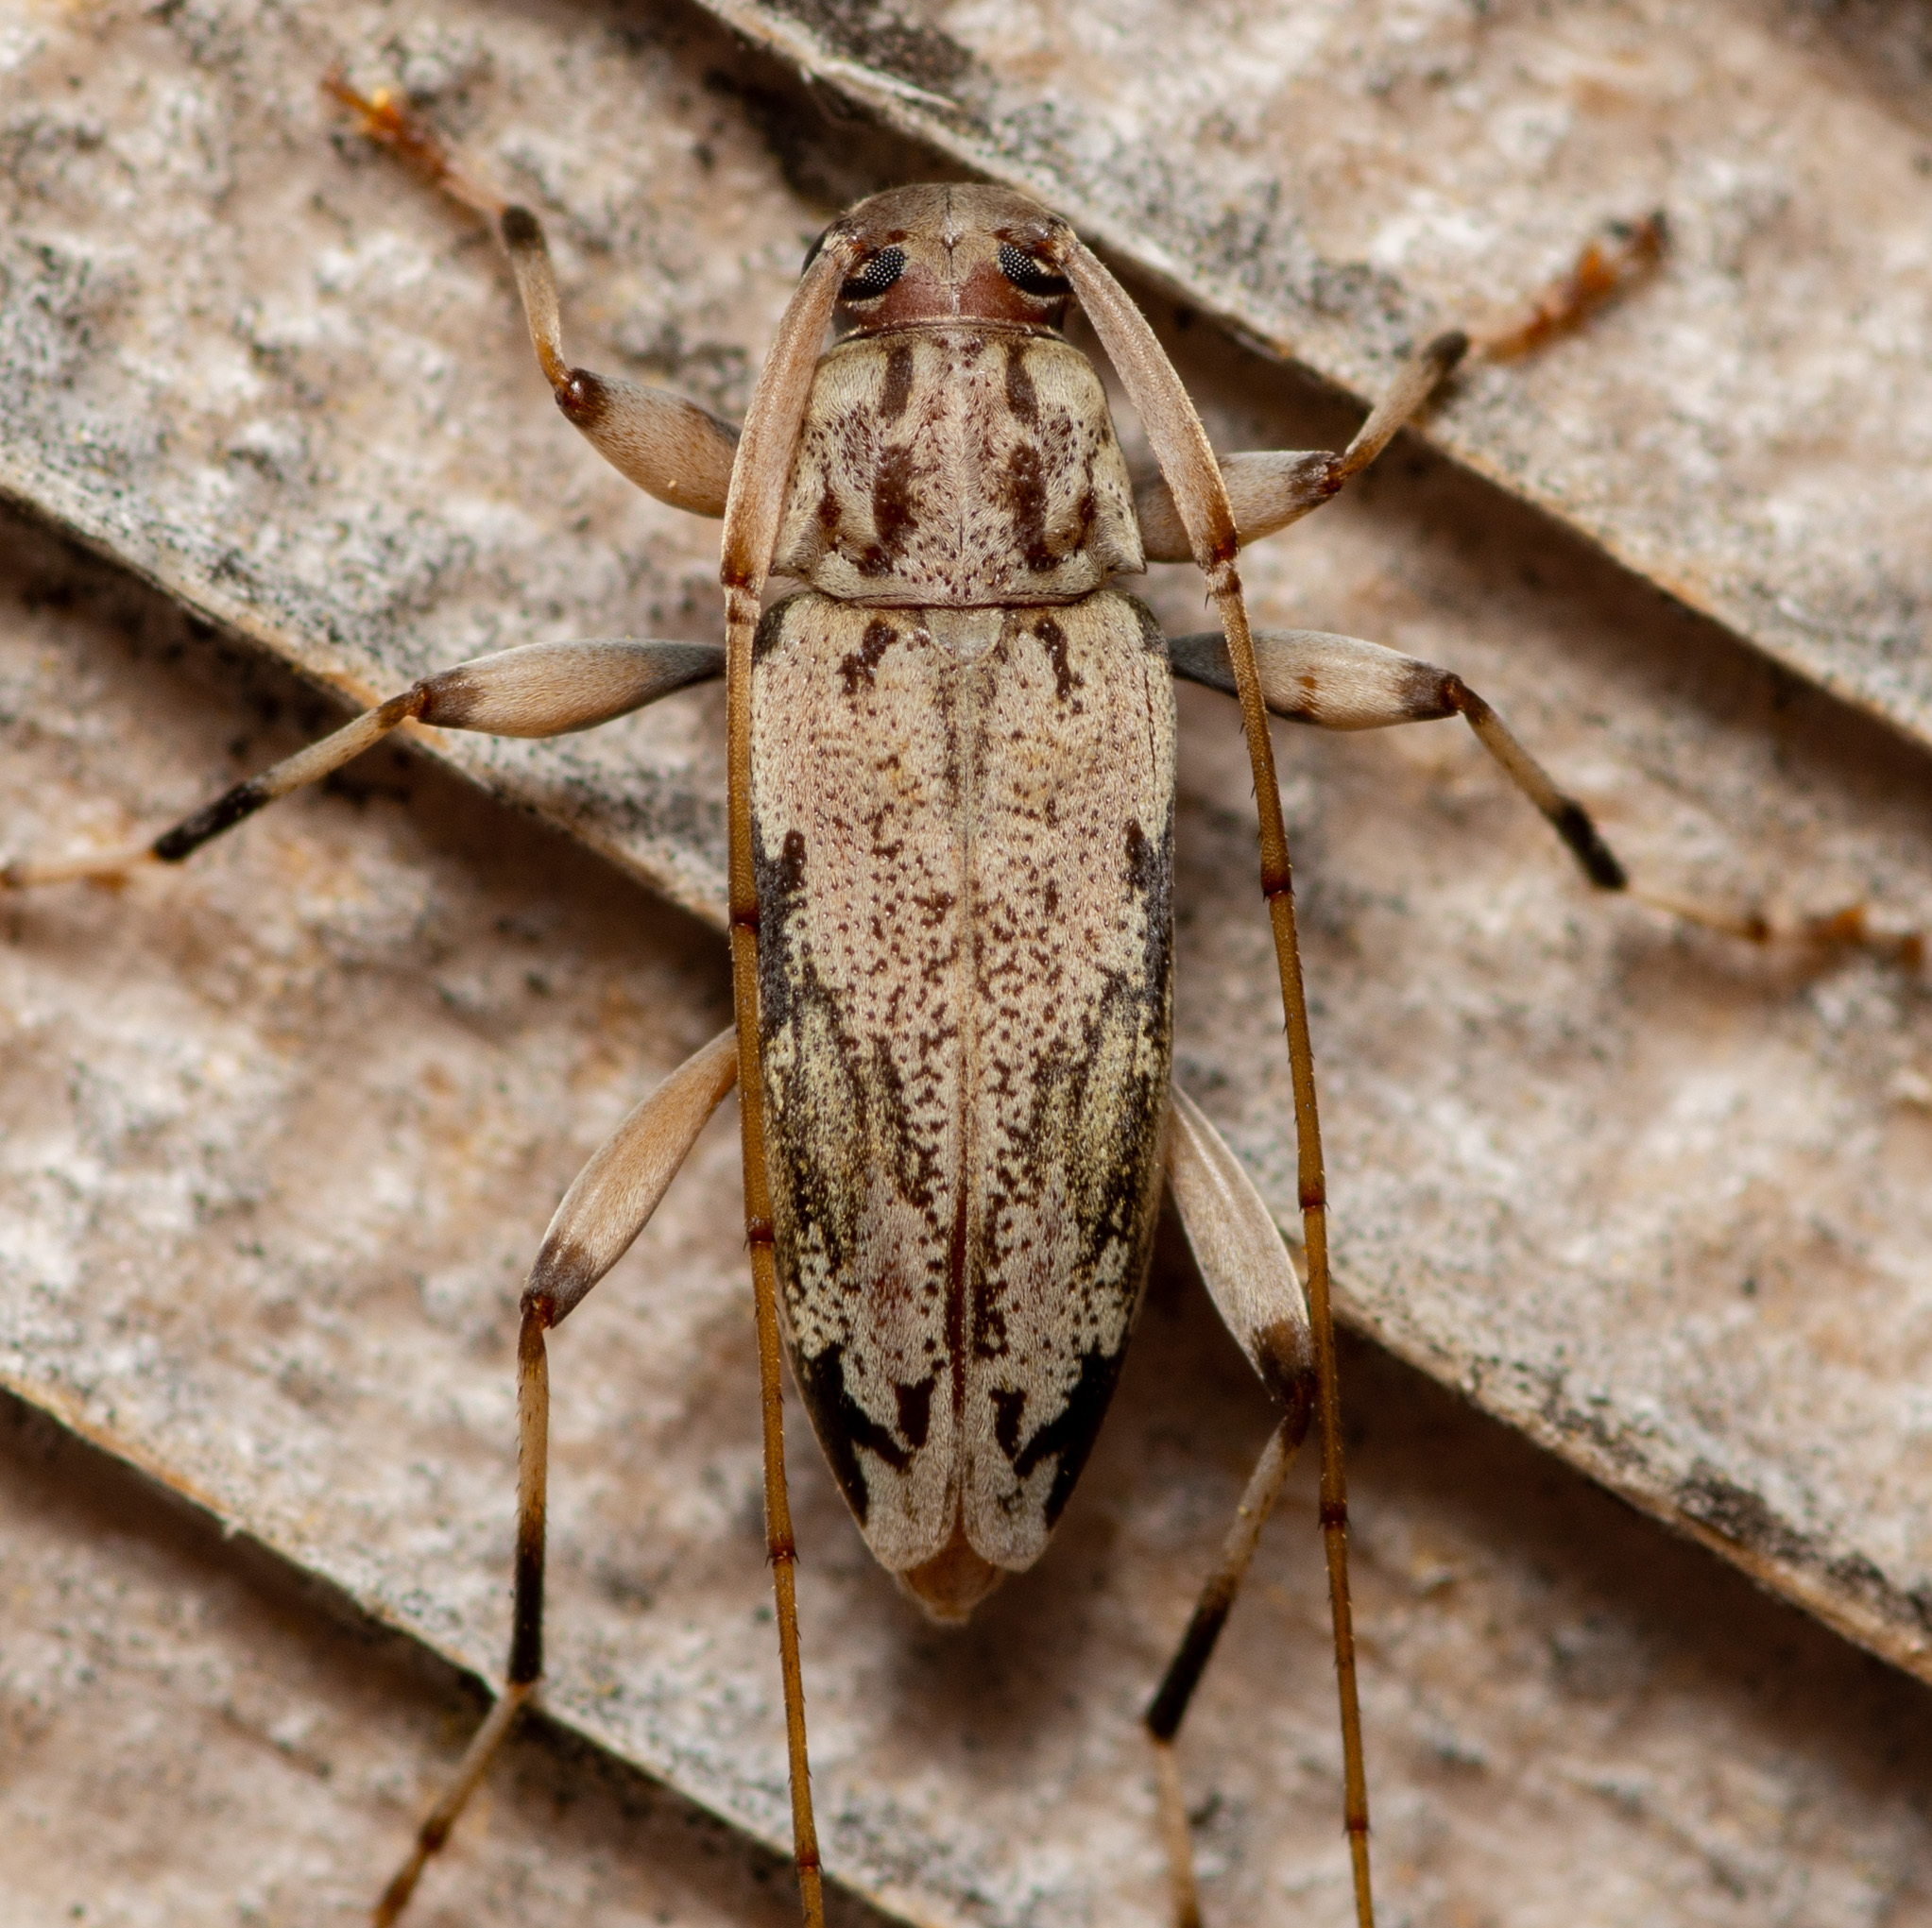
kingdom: Animalia
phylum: Arthropoda
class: Insecta
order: Coleoptera
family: Cerambycidae
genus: Lepturges
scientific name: Lepturges angulatus
